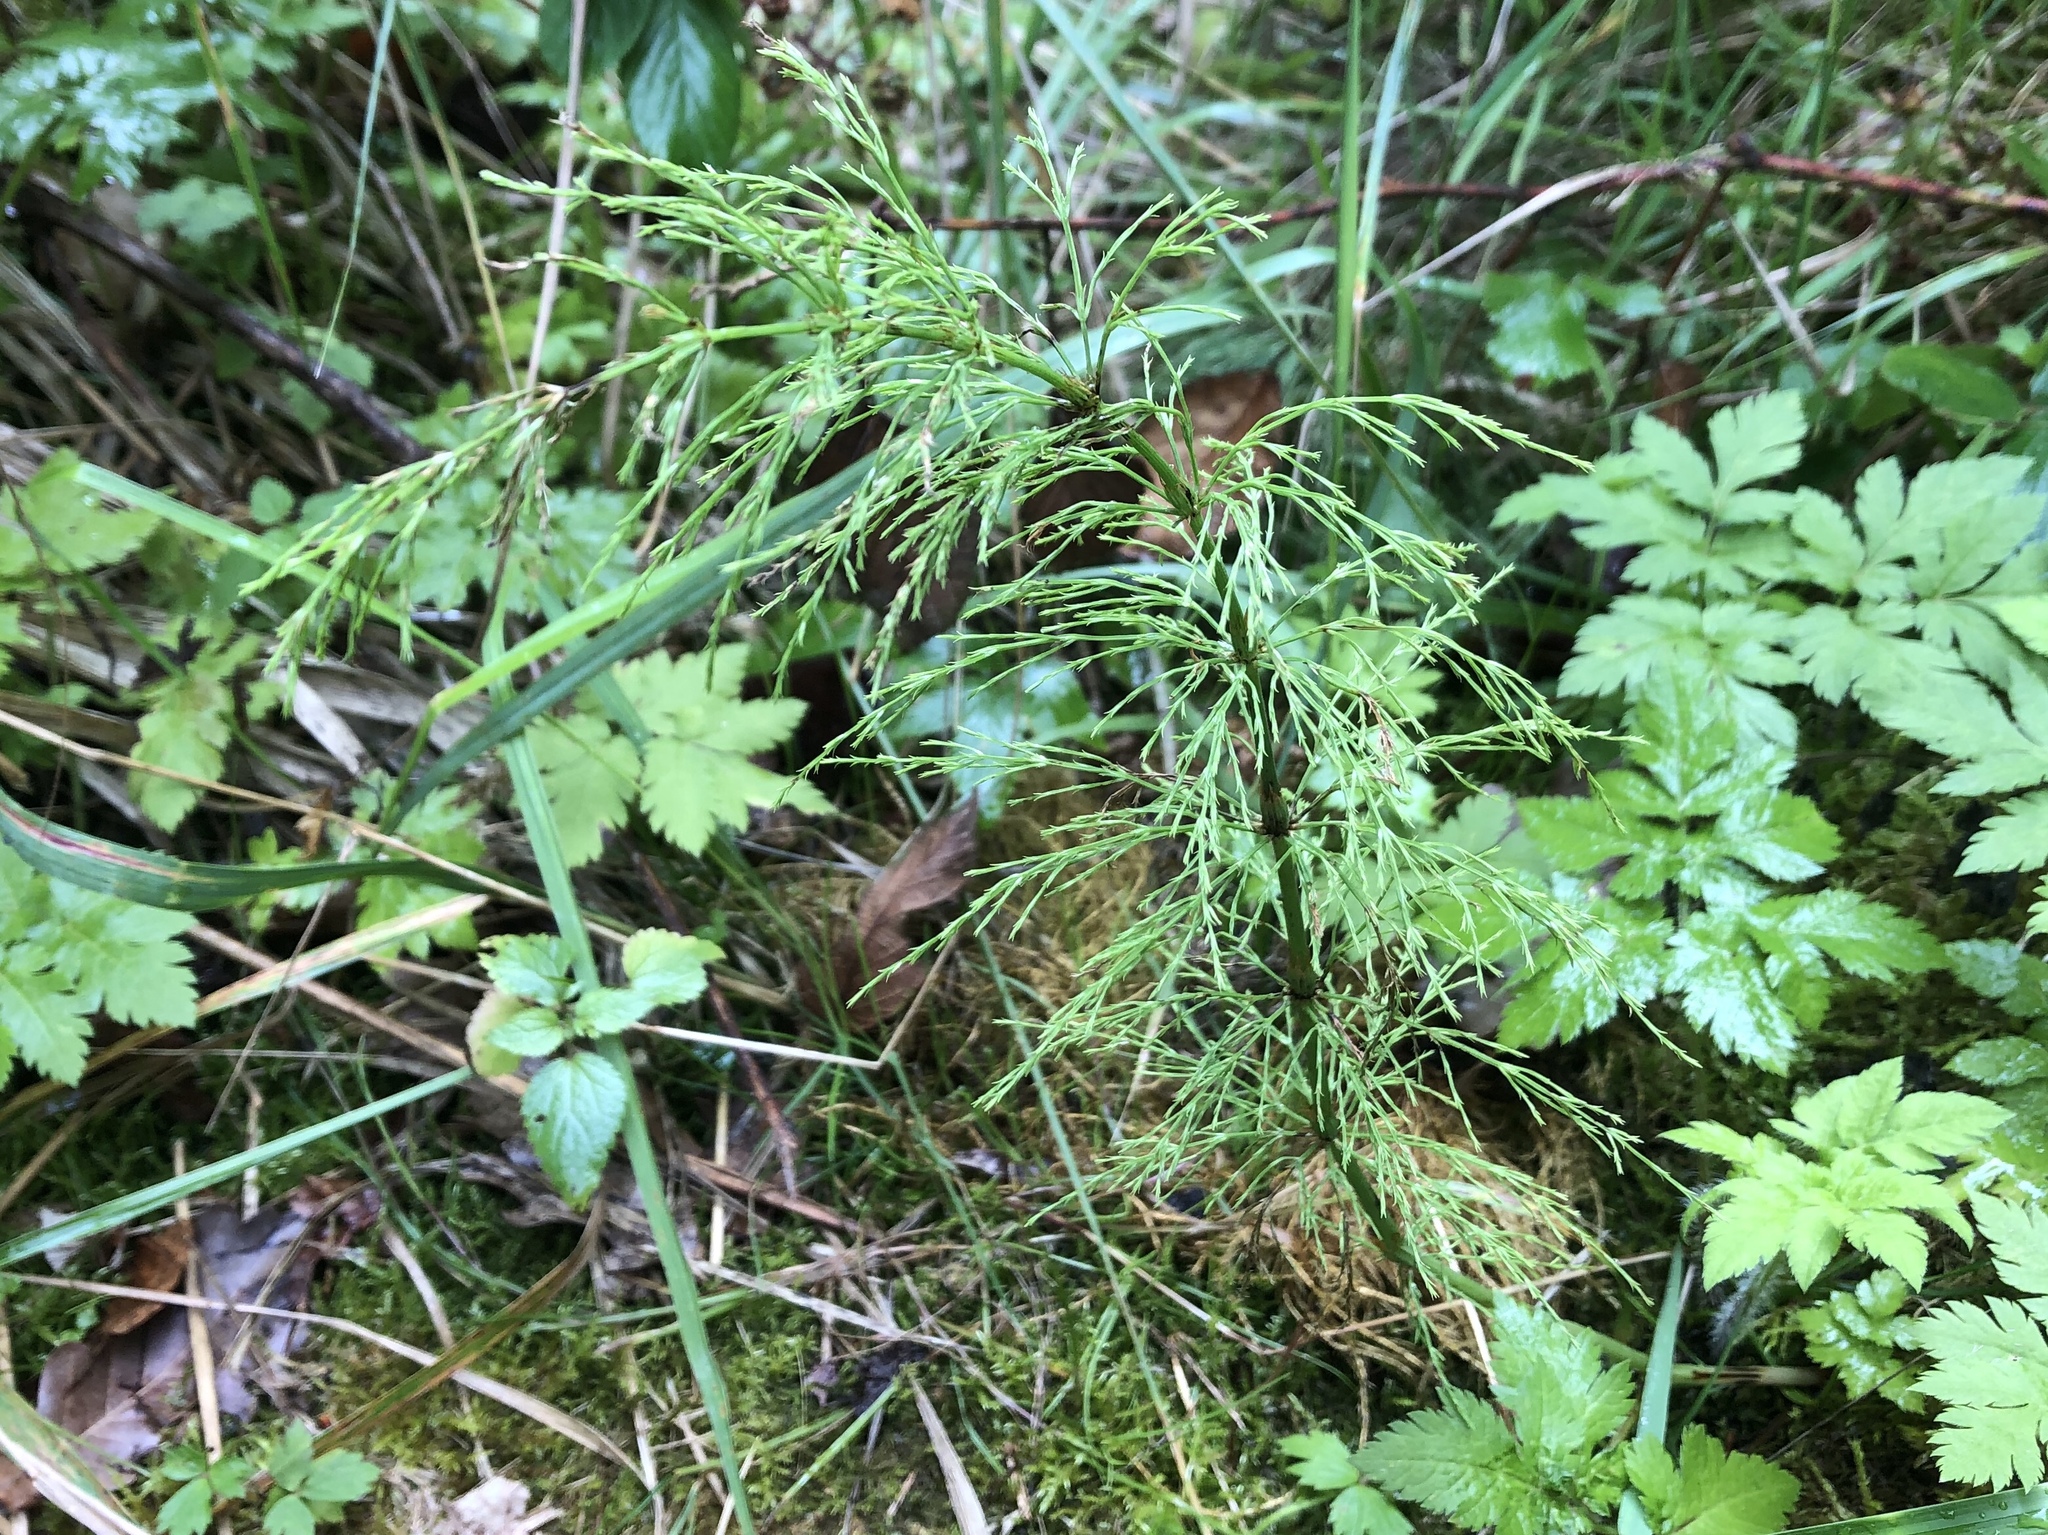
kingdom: Plantae
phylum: Tracheophyta
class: Polypodiopsida
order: Equisetales
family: Equisetaceae
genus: Equisetum
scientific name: Equisetum sylvaticum
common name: Wood horsetail
